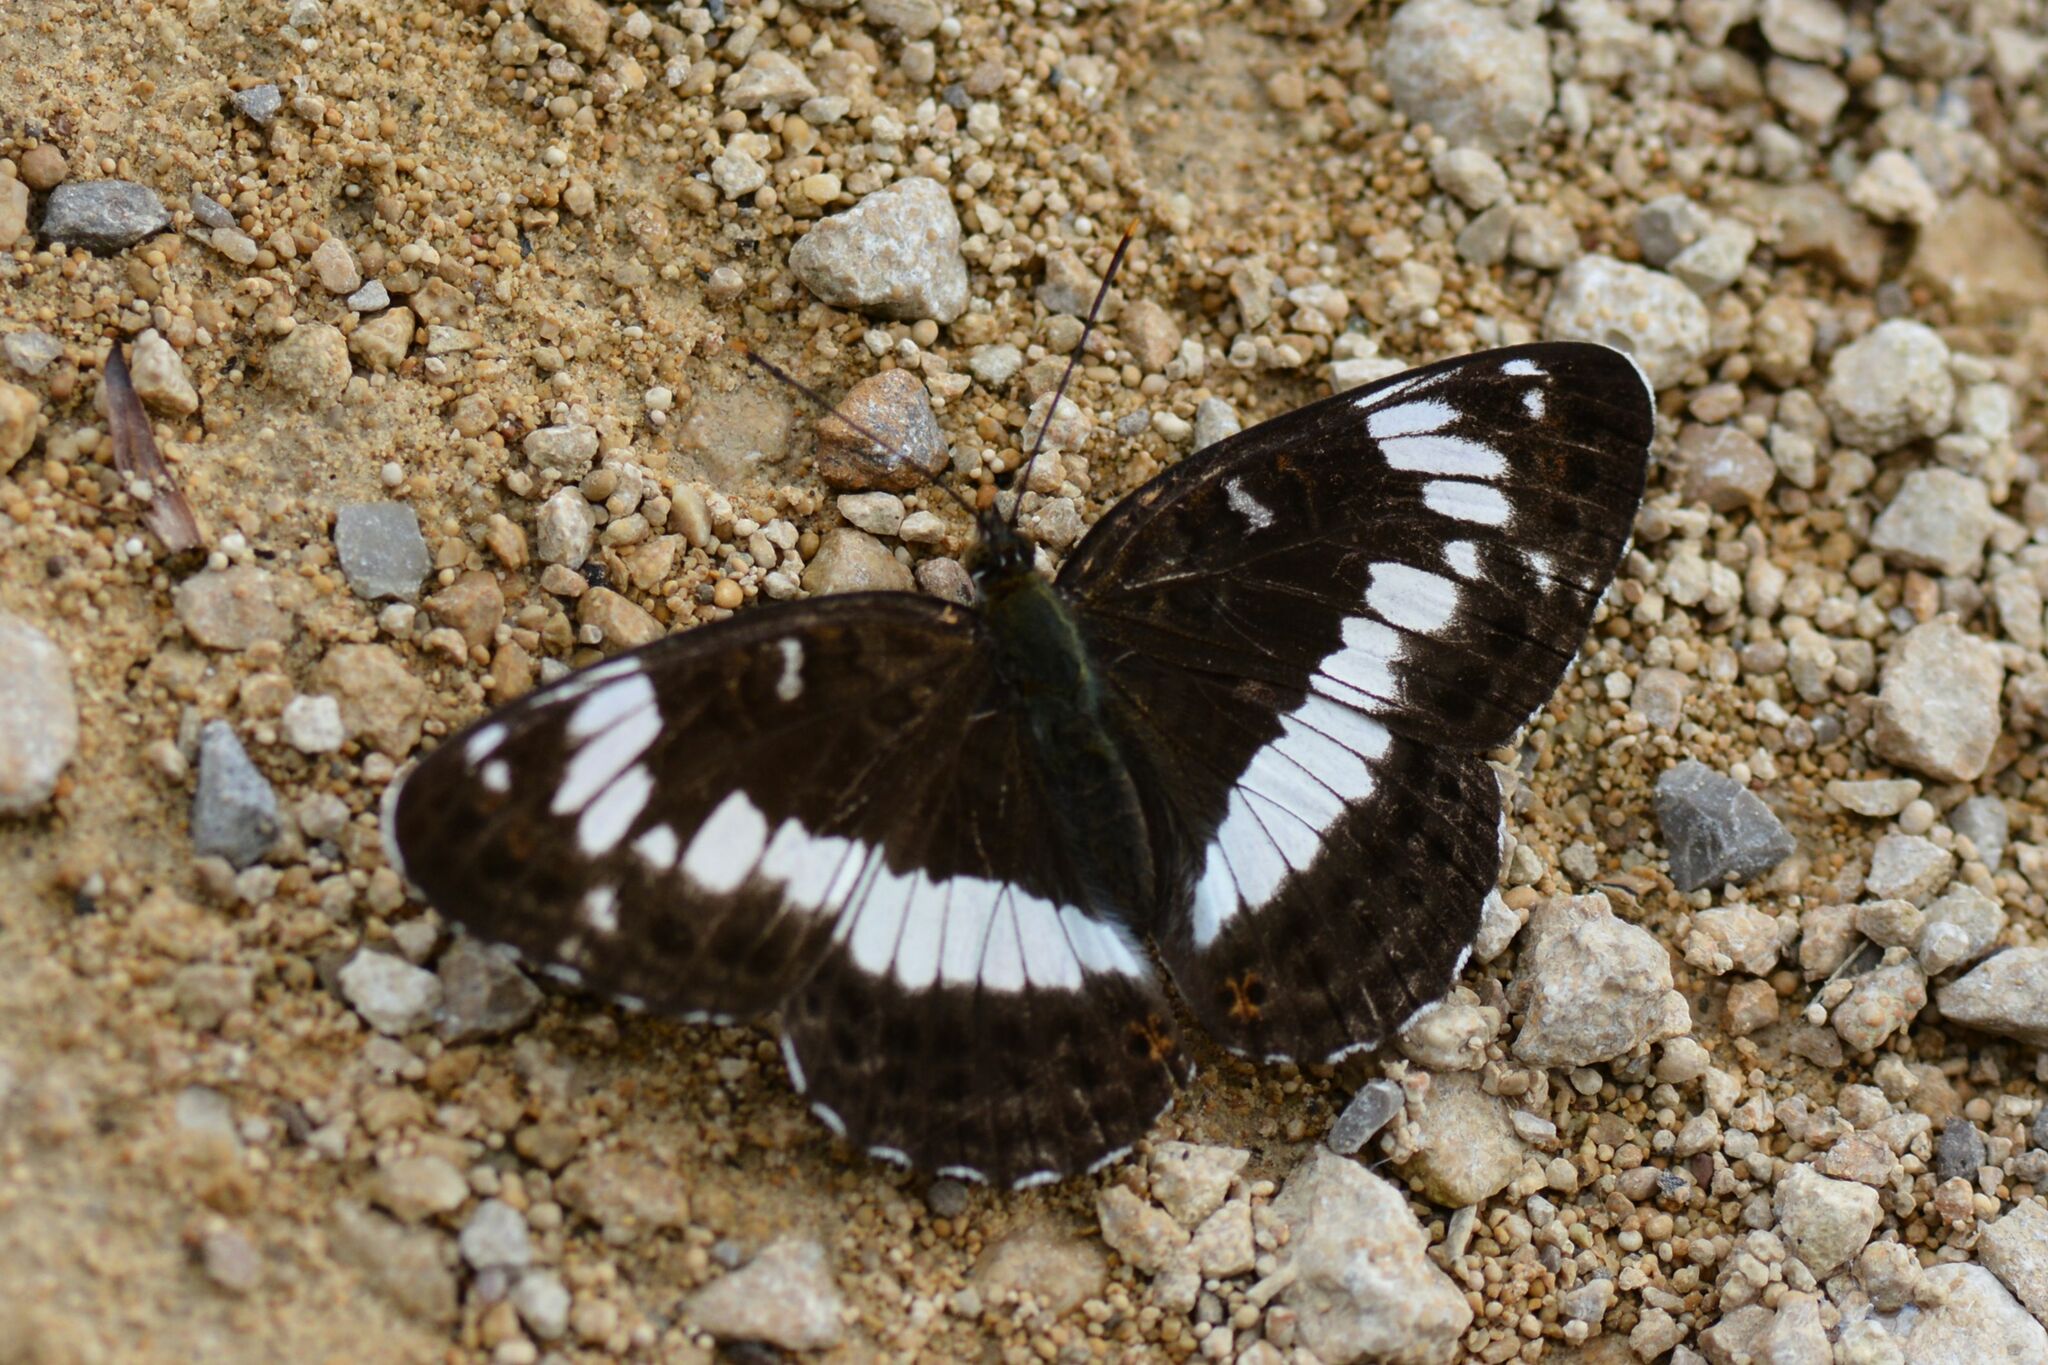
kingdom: Animalia
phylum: Arthropoda
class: Insecta
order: Lepidoptera
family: Nymphalidae
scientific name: Nymphalidae
